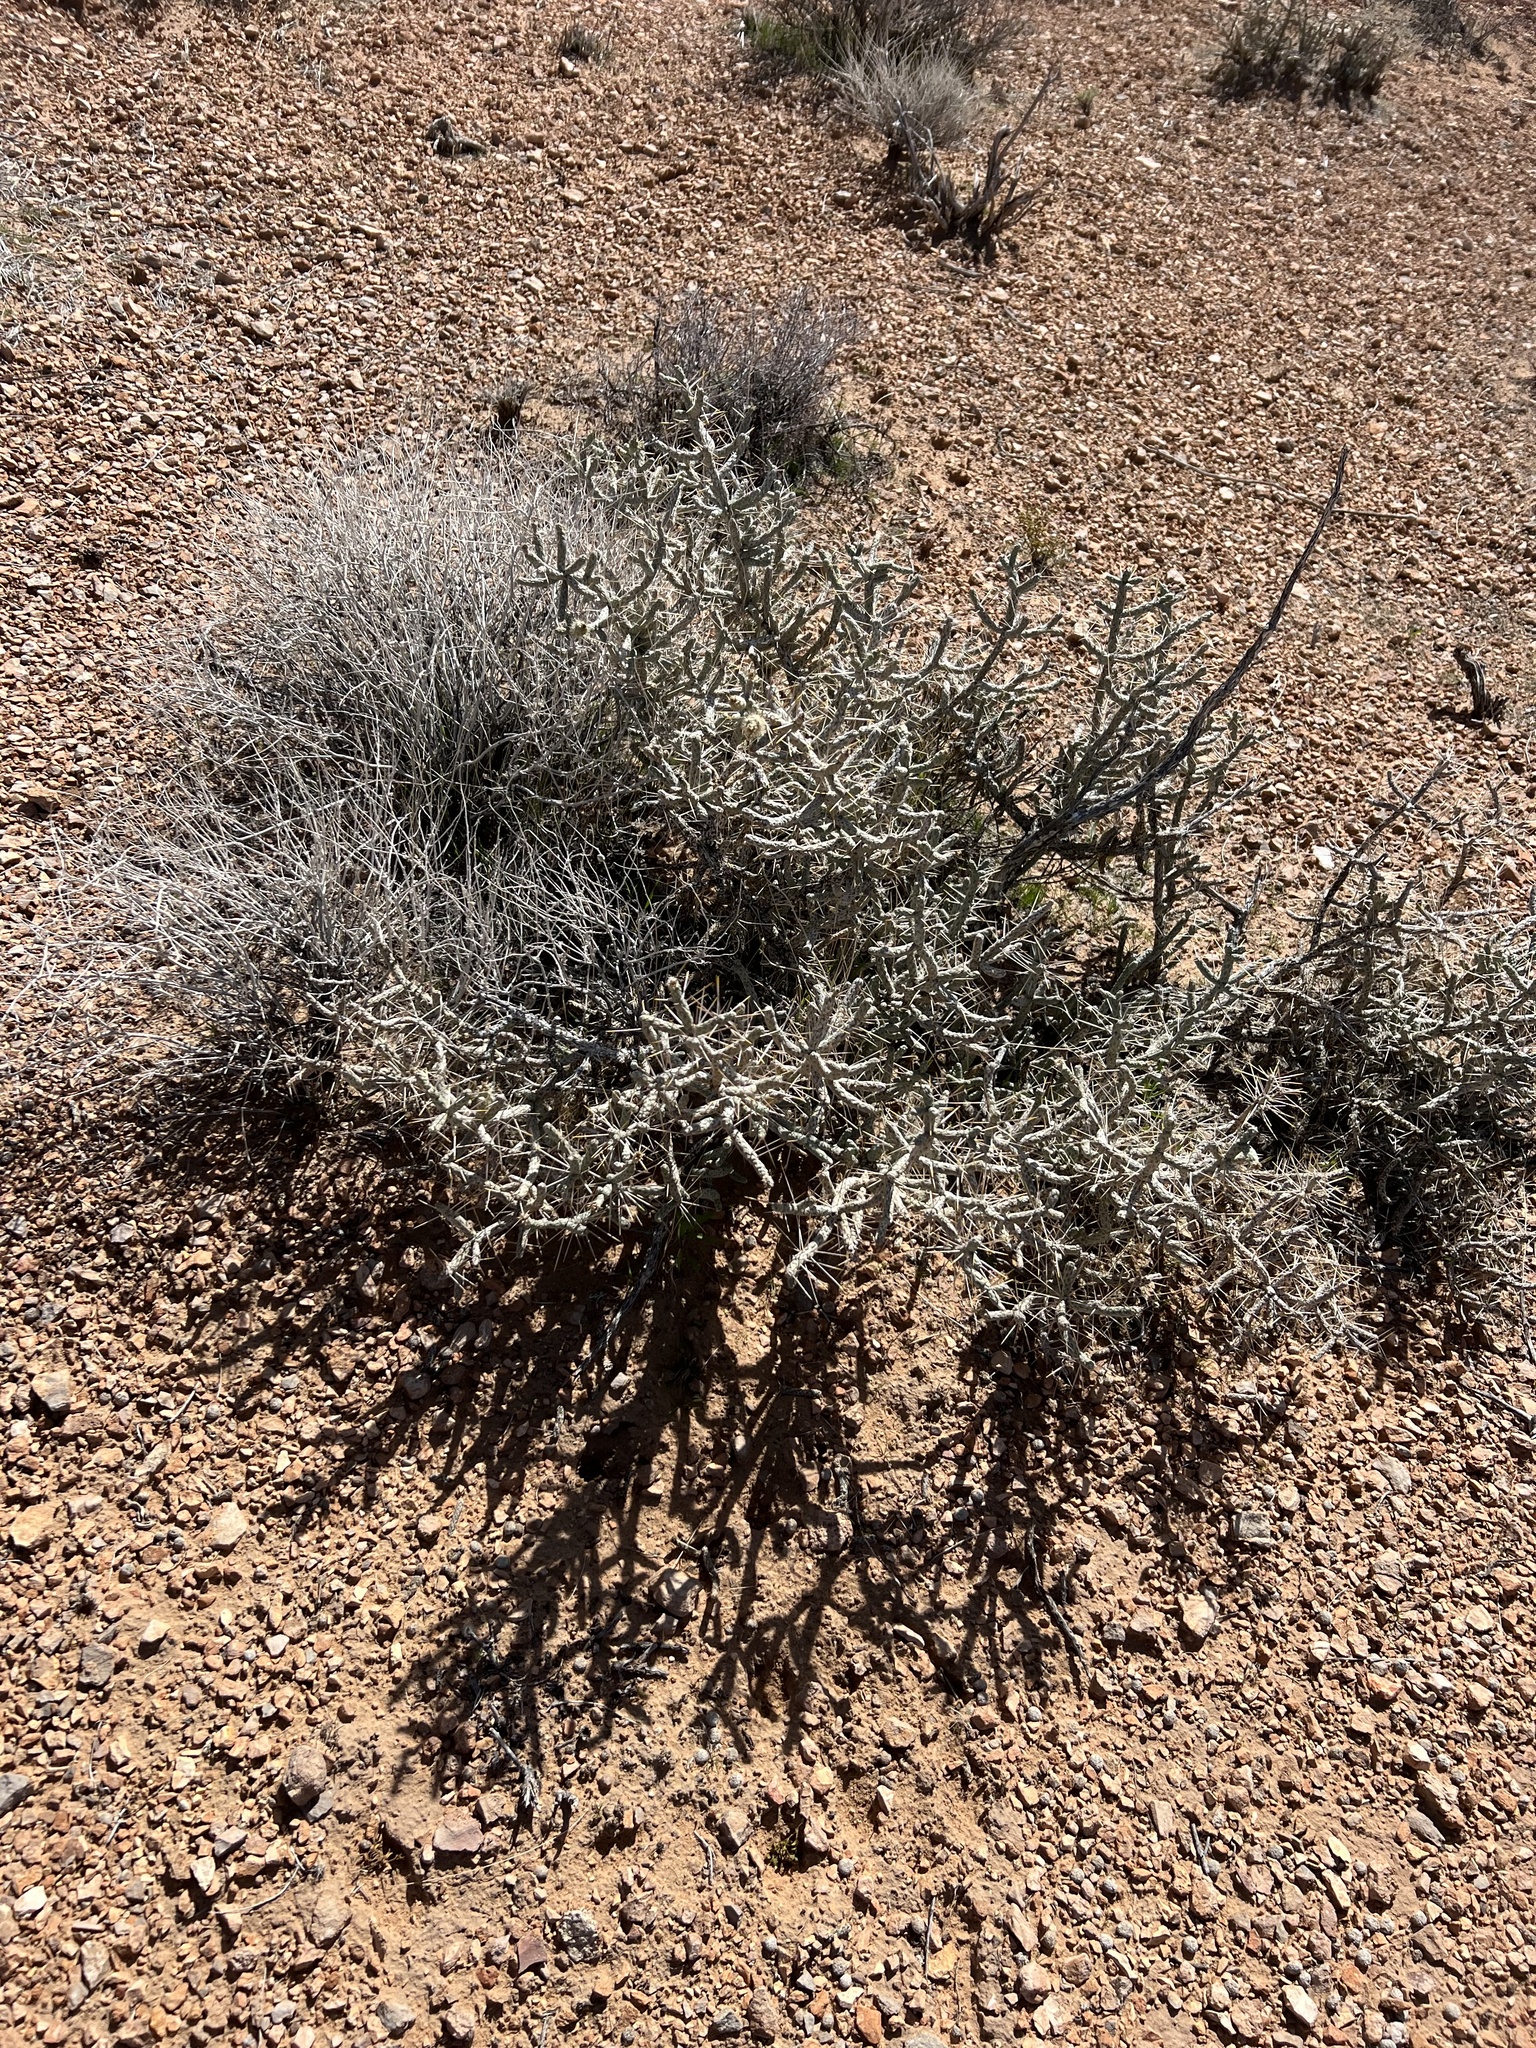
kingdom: Plantae
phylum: Tracheophyta
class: Magnoliopsida
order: Caryophyllales
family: Cactaceae
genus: Cylindropuntia
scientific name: Cylindropuntia ramosissima
